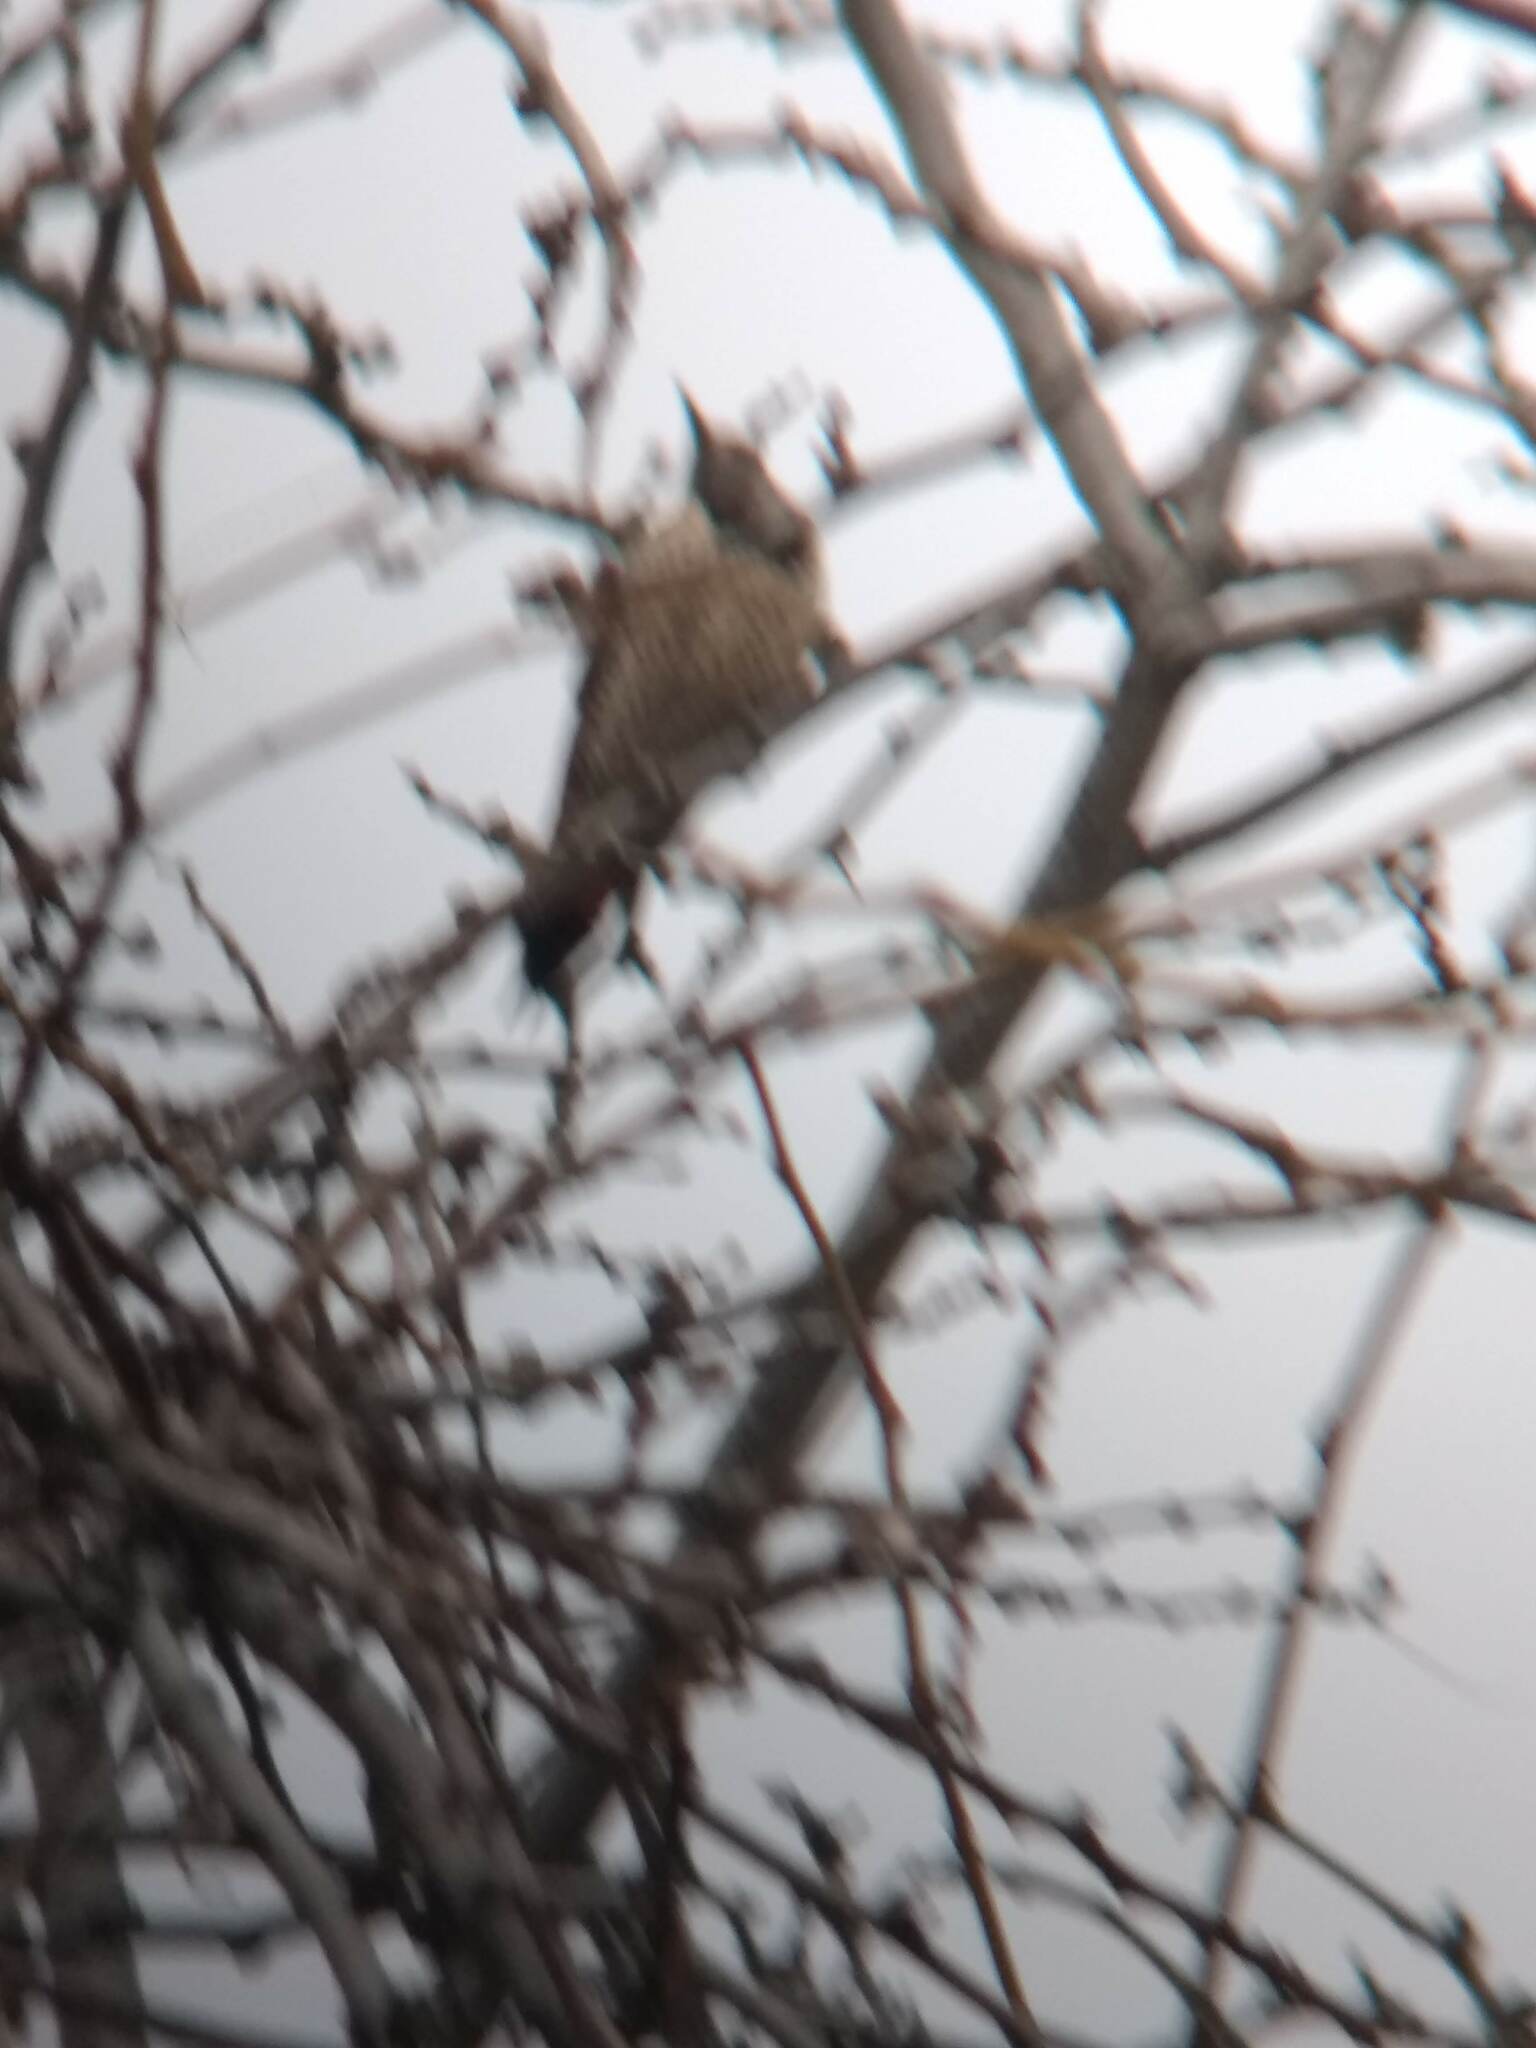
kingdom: Animalia
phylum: Chordata
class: Aves
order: Piciformes
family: Picidae
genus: Colaptes
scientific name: Colaptes auratus
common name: Northern flicker
